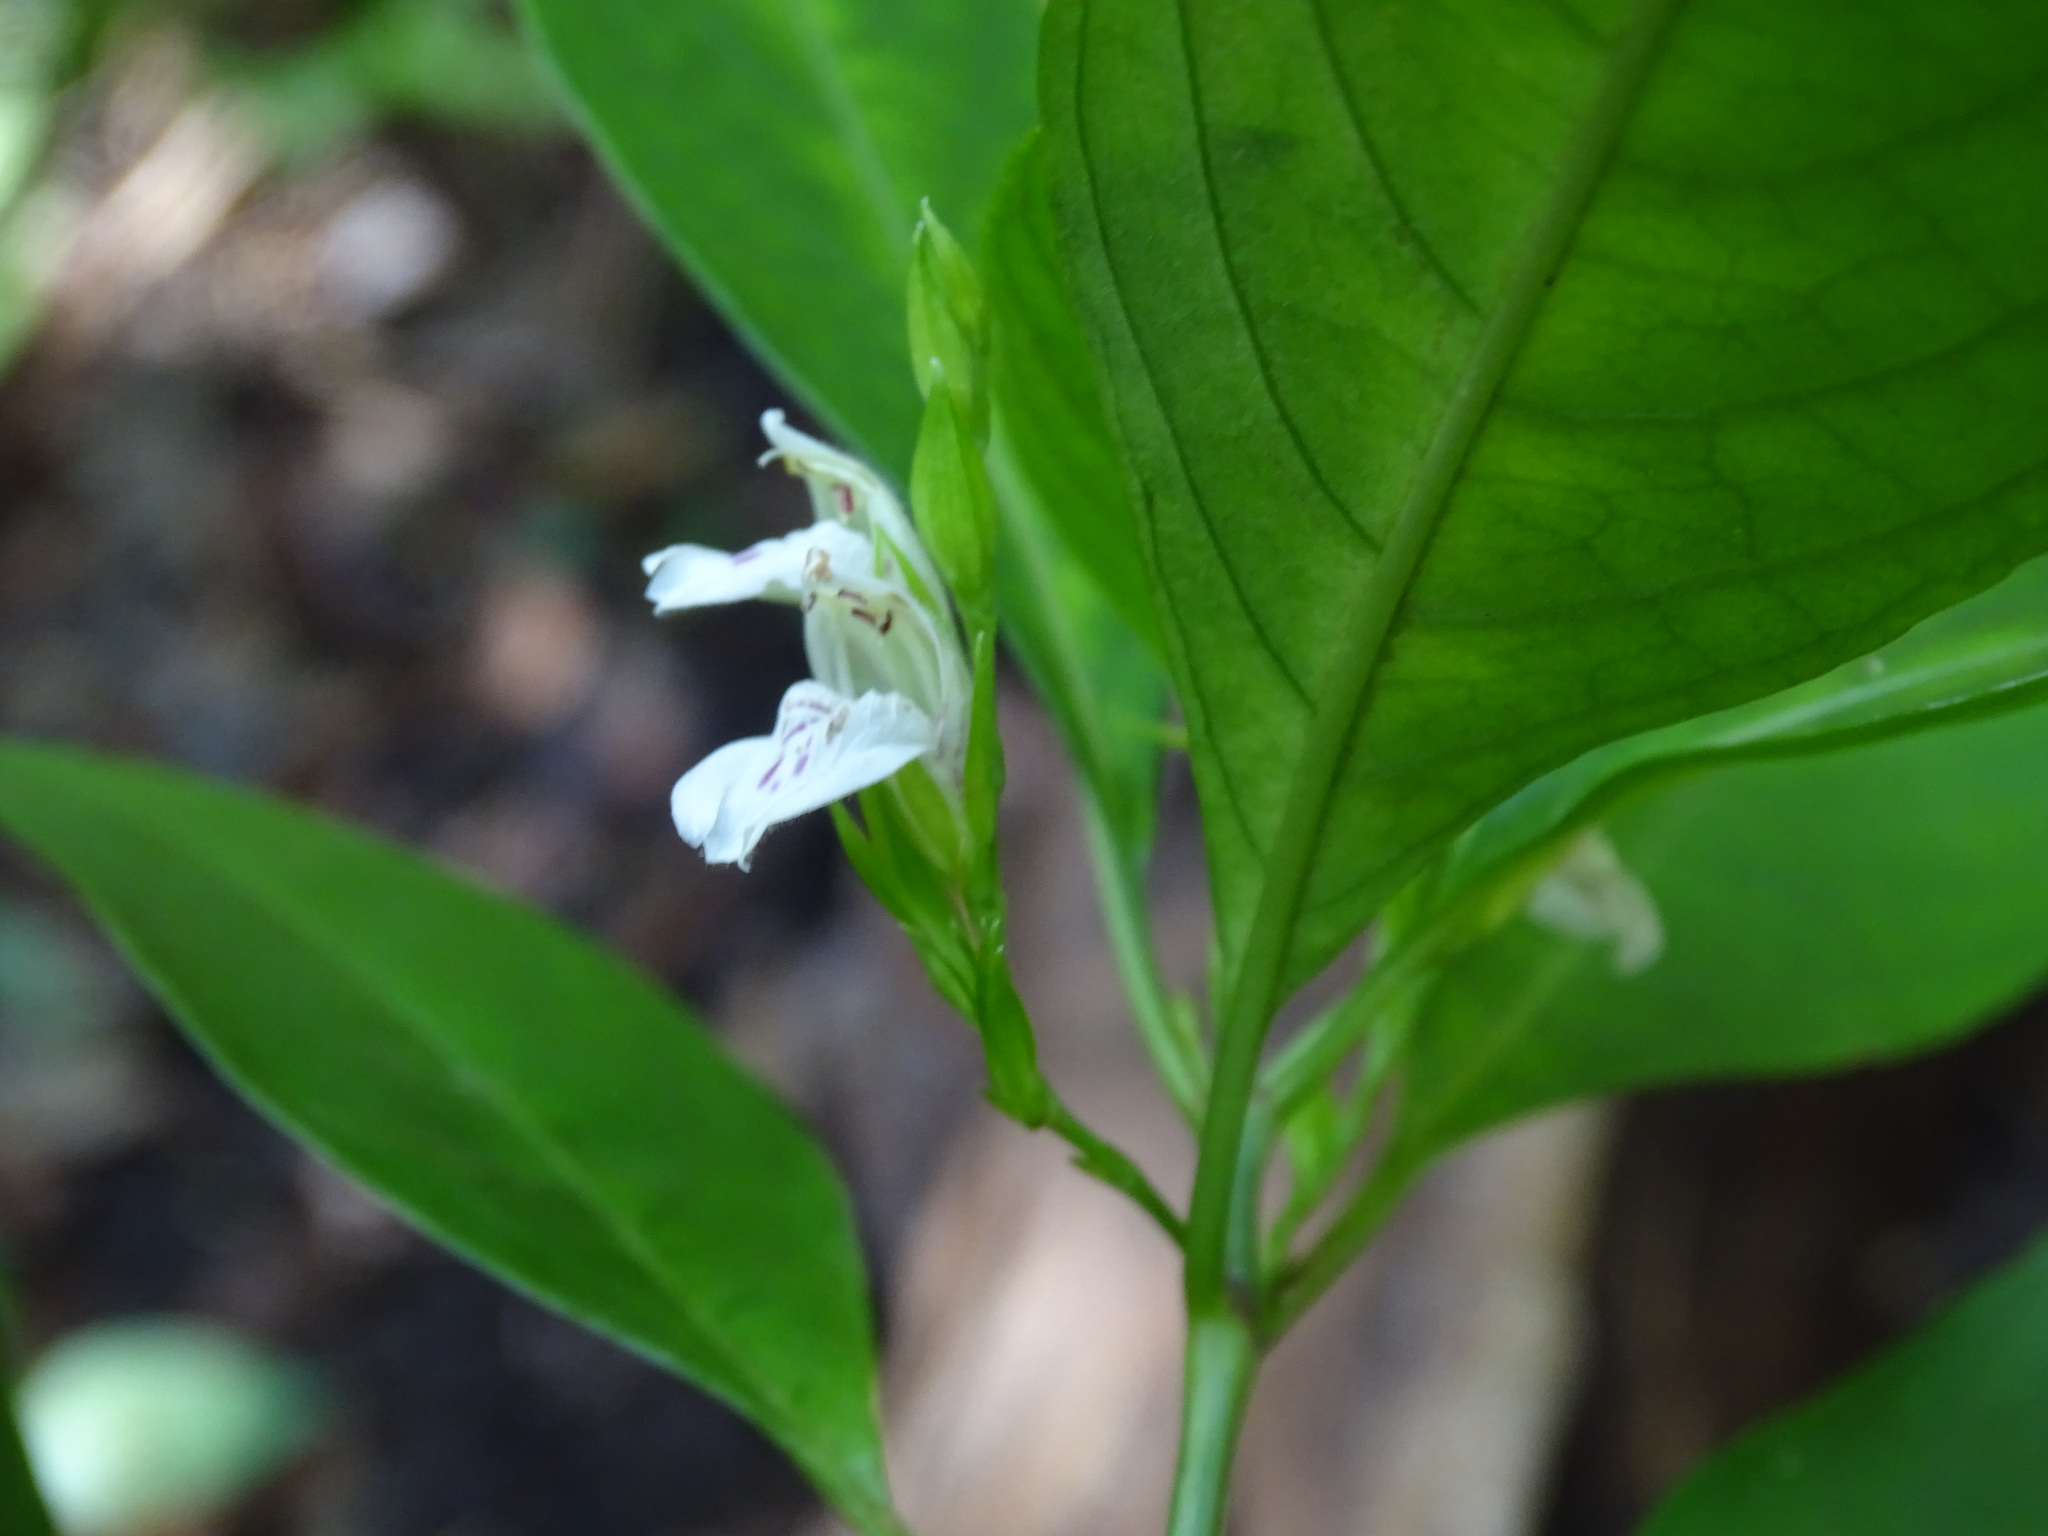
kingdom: Plantae
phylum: Tracheophyta
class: Magnoliopsida
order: Lamiales
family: Acanthaceae
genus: Justicia
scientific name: Justicia campechiana
